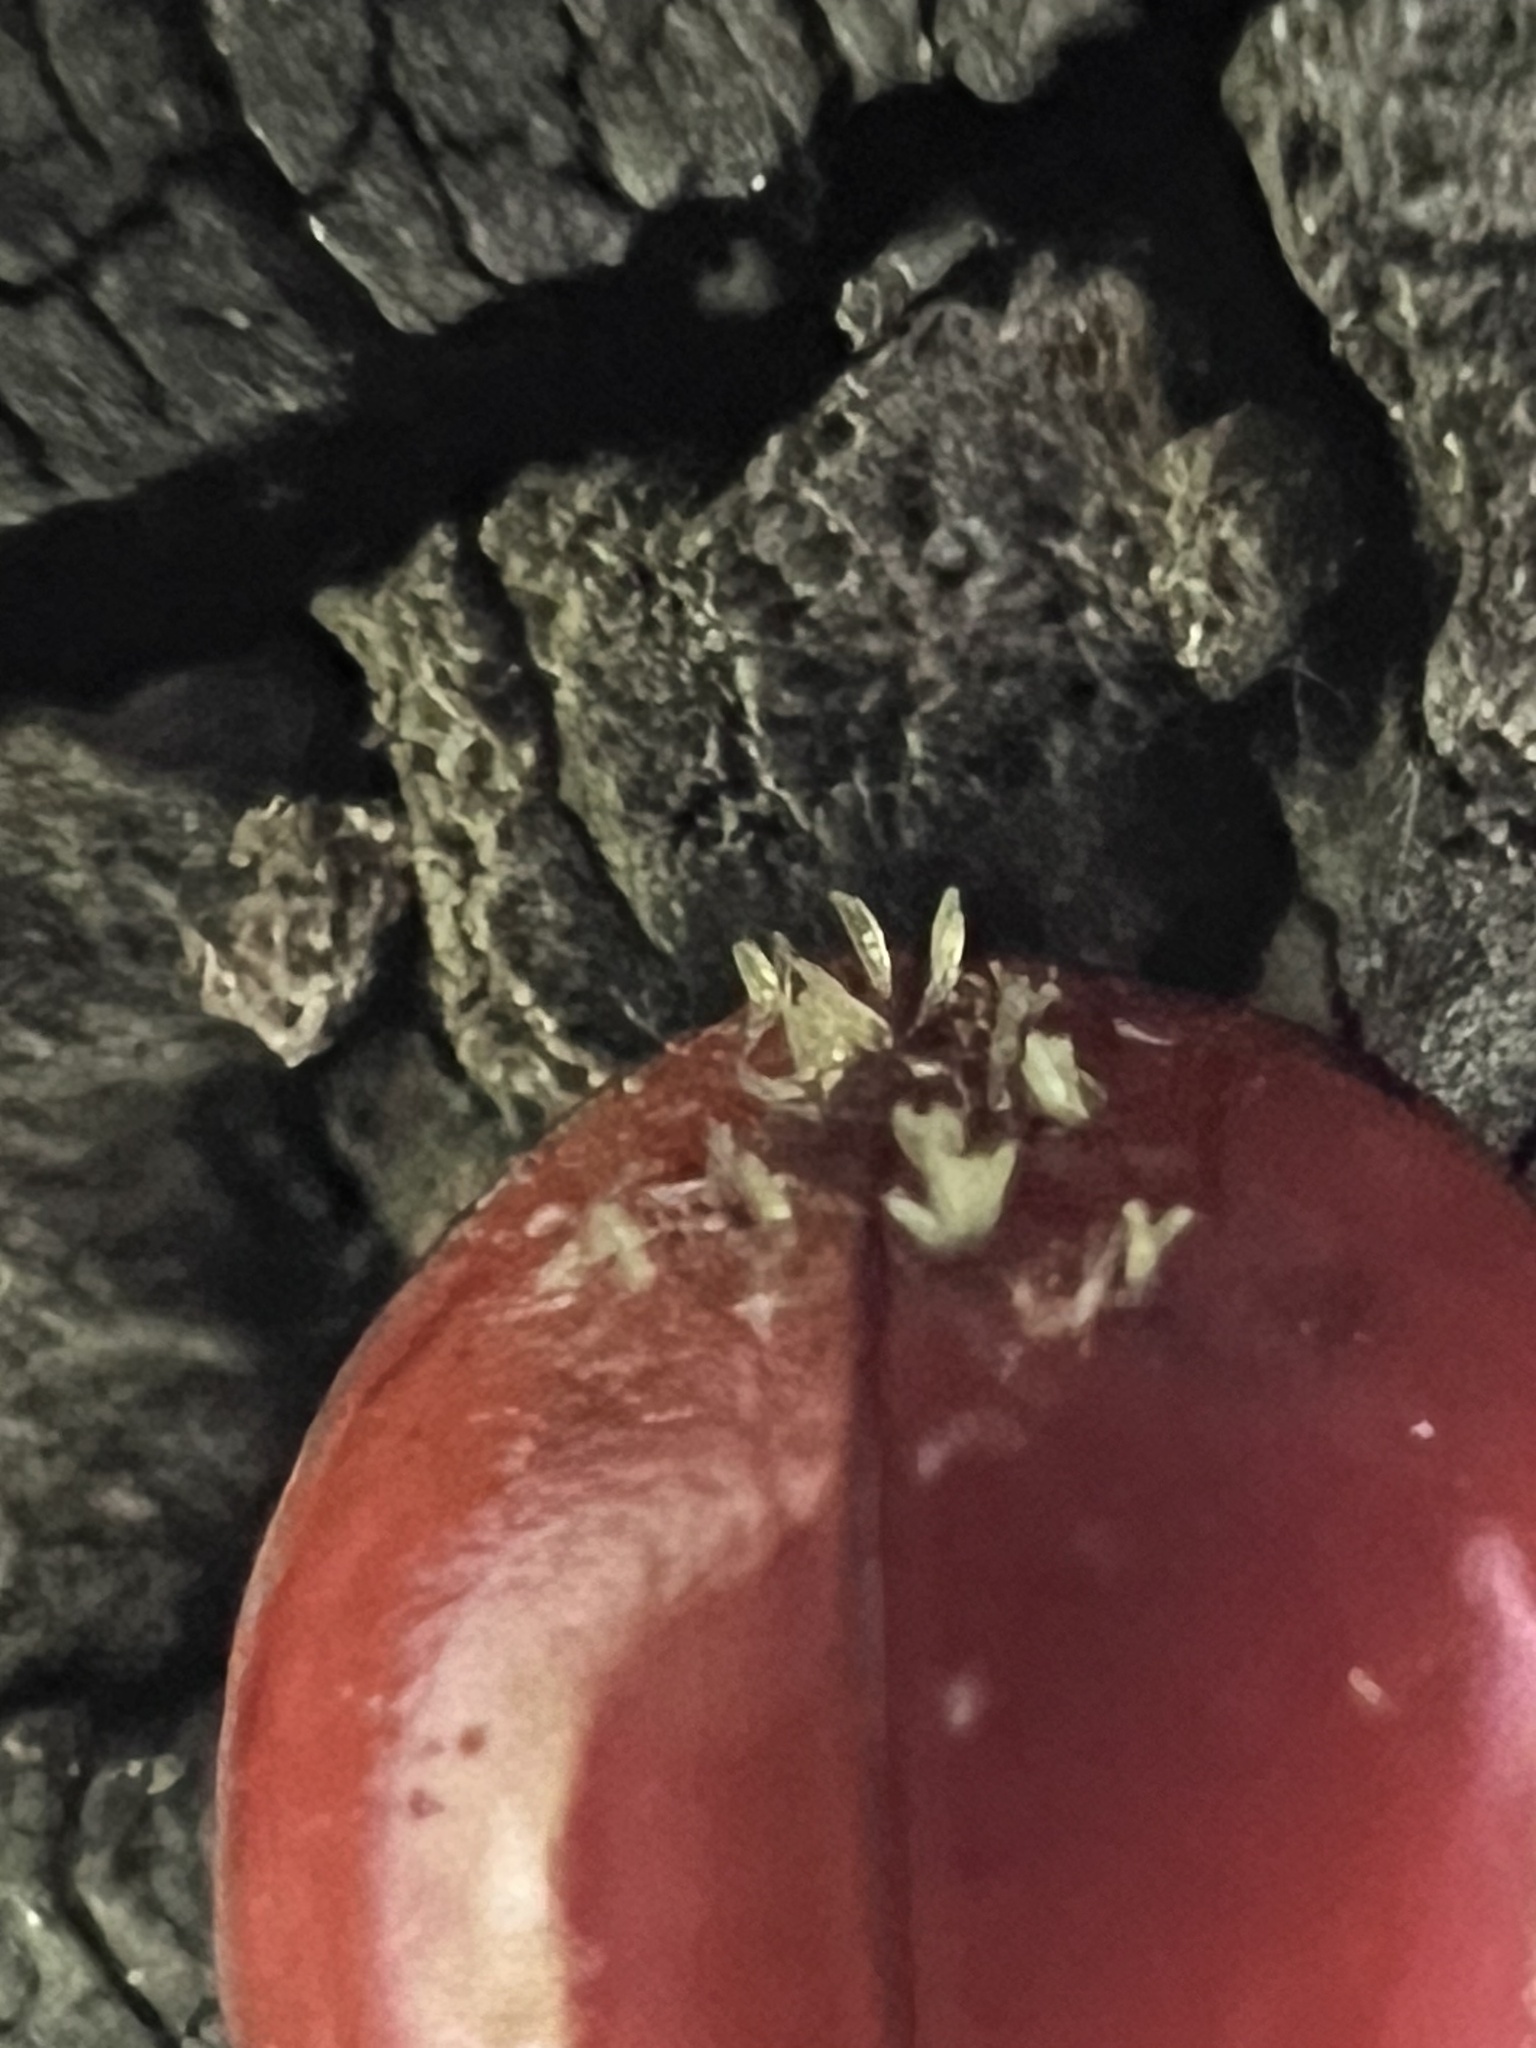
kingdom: Fungi
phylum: Ascomycota
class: Laboulbeniomycetes
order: Laboulbeniales
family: Laboulbeniaceae
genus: Hesperomyces
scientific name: Hesperomyces harmoniae
